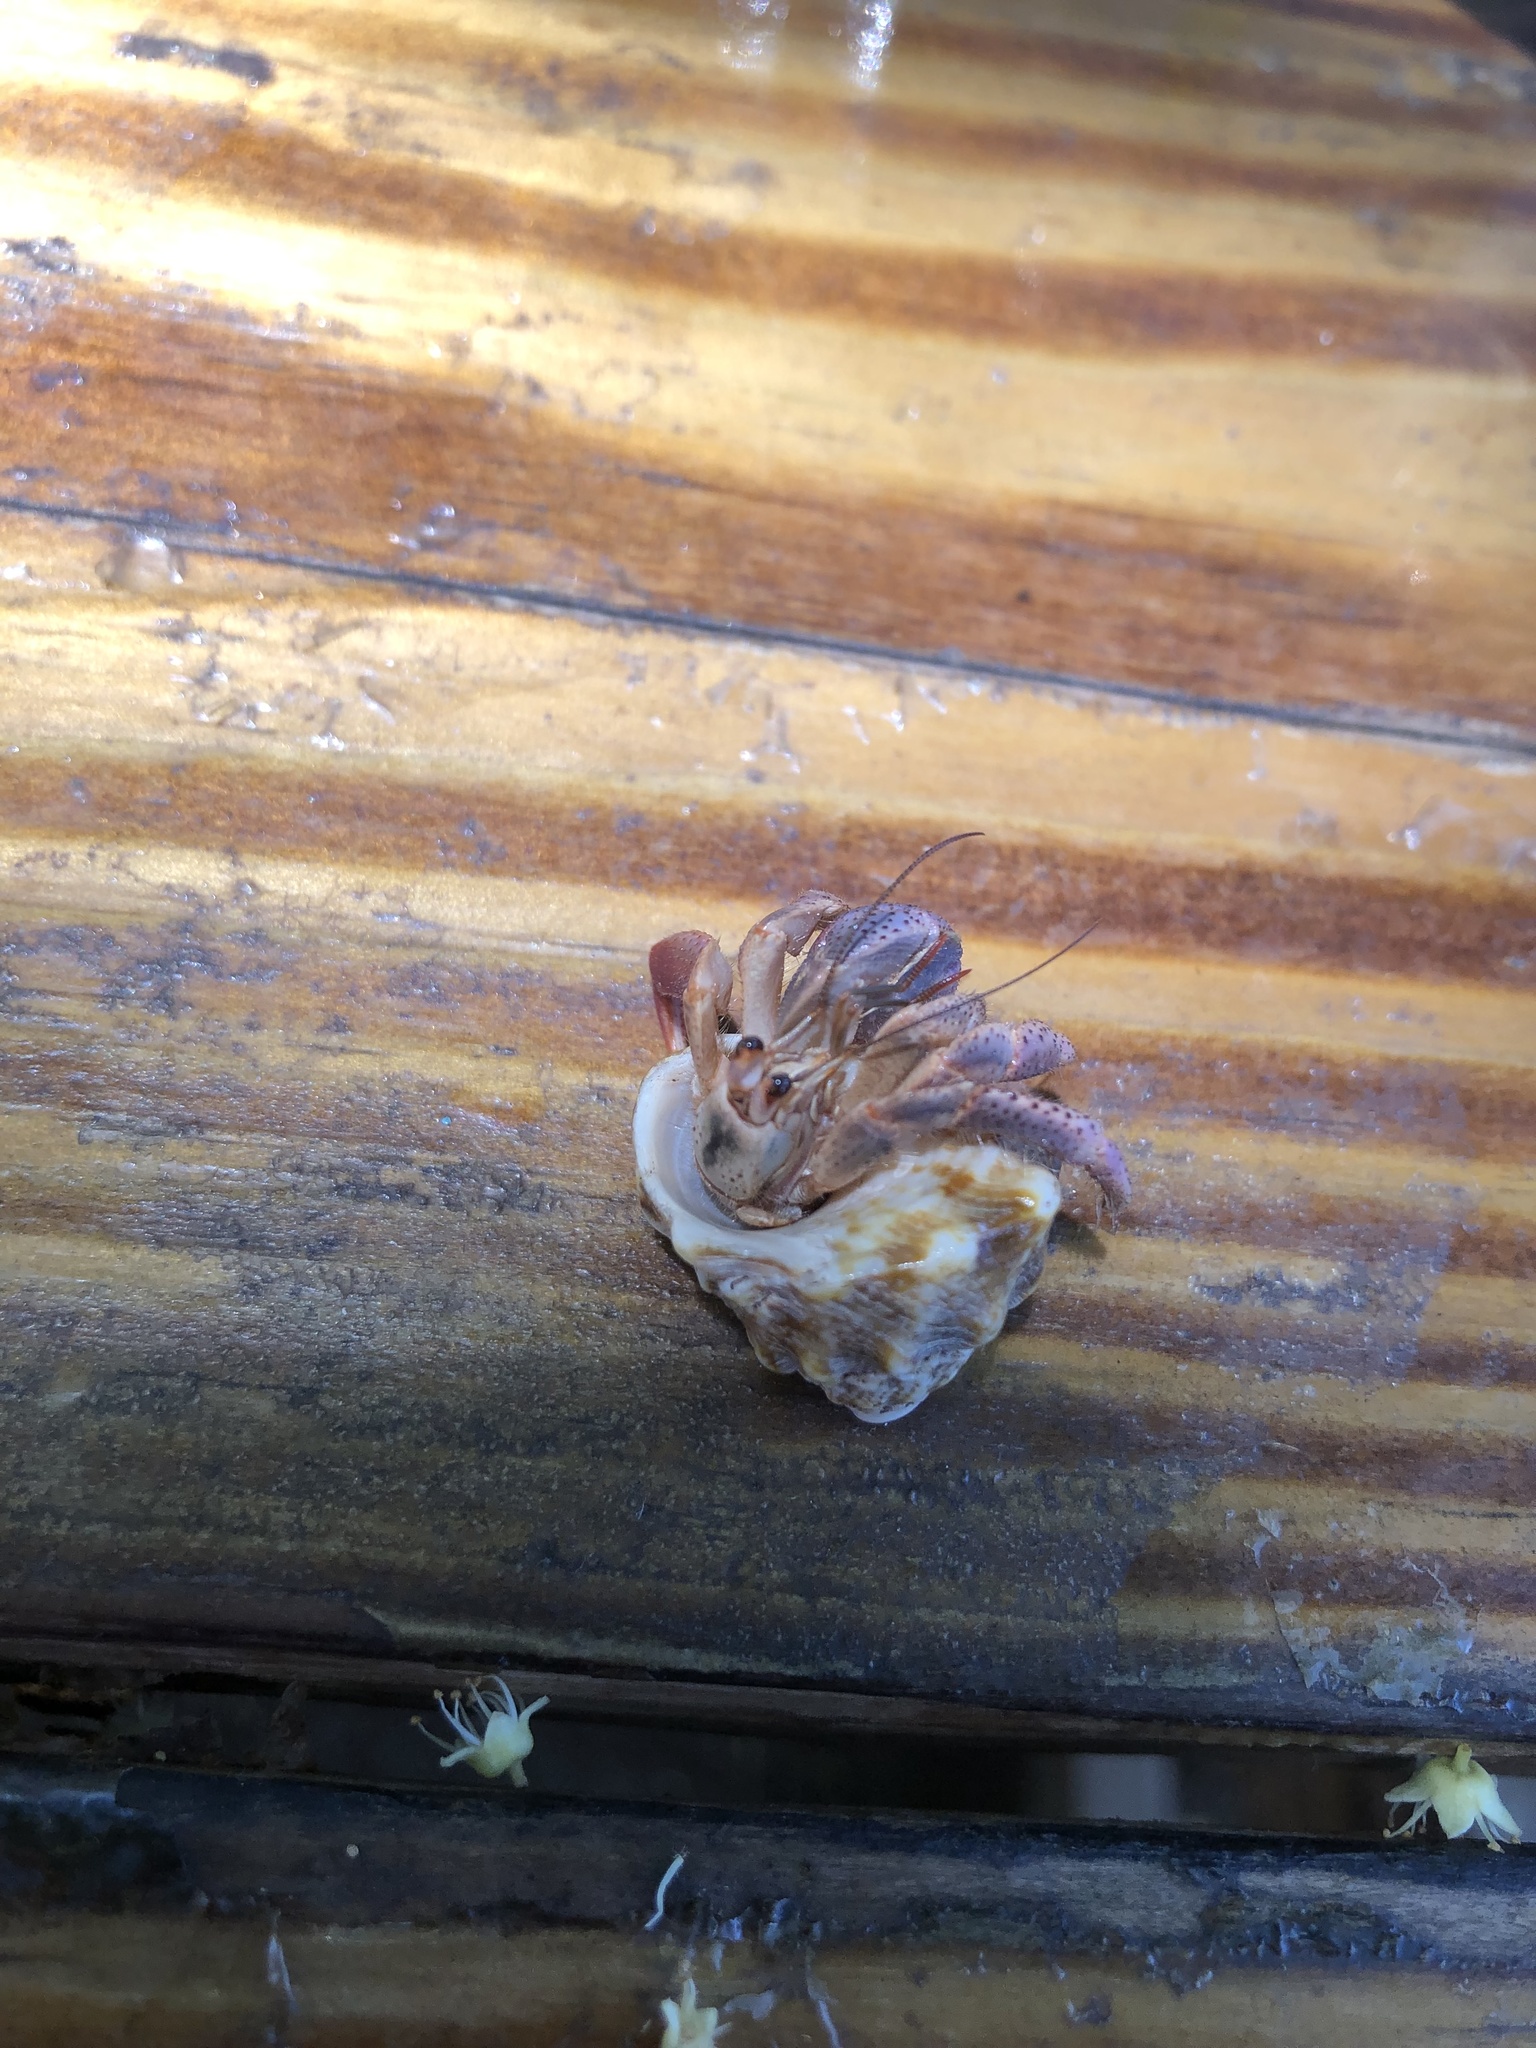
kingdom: Animalia
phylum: Arthropoda
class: Malacostraca
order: Decapoda
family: Coenobitidae
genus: Coenobita
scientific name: Coenobita clypeatus
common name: Caribbean hermit crab
